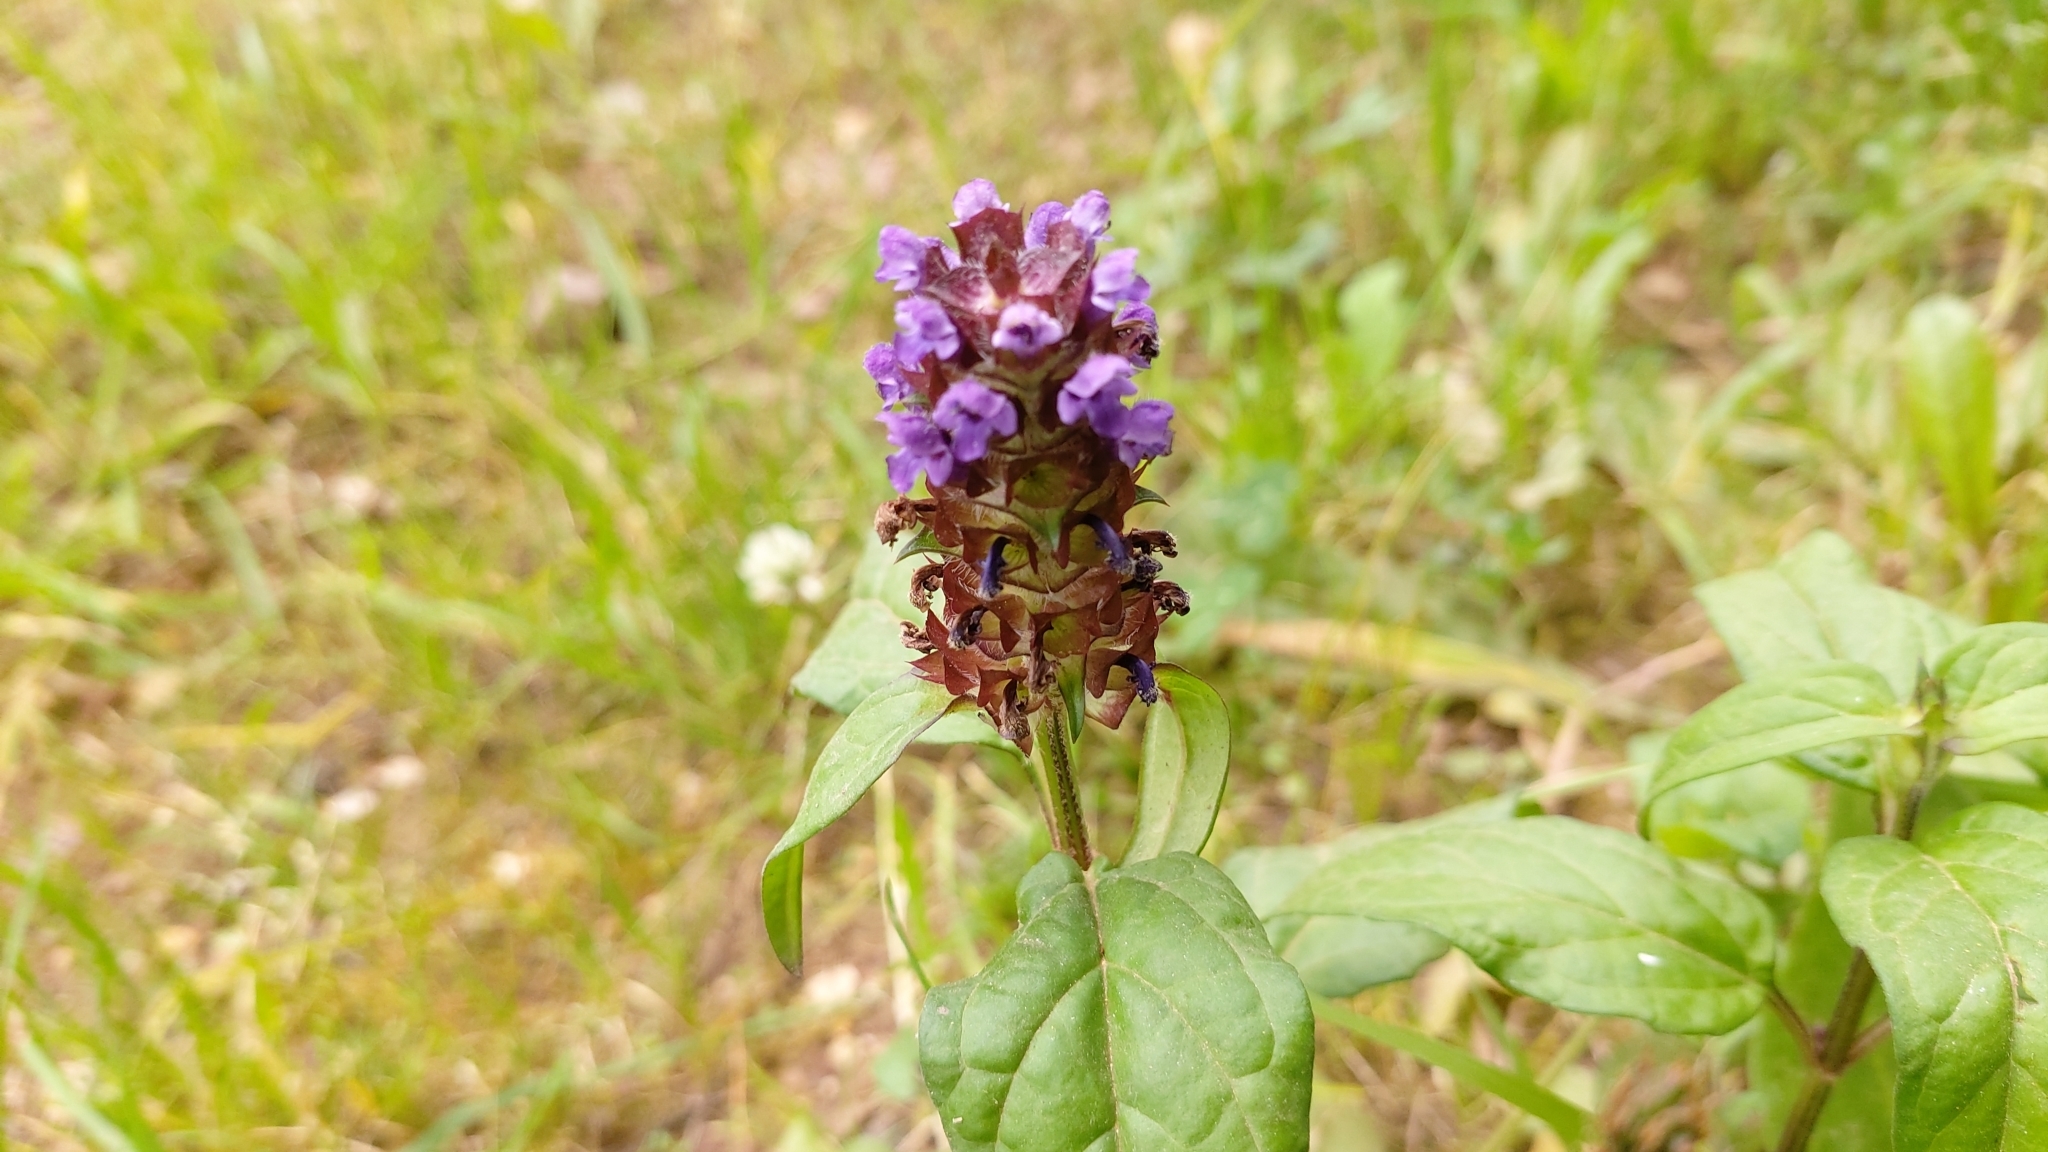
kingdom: Plantae
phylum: Tracheophyta
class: Magnoliopsida
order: Lamiales
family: Lamiaceae
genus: Prunella
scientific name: Prunella vulgaris
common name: Heal-all
